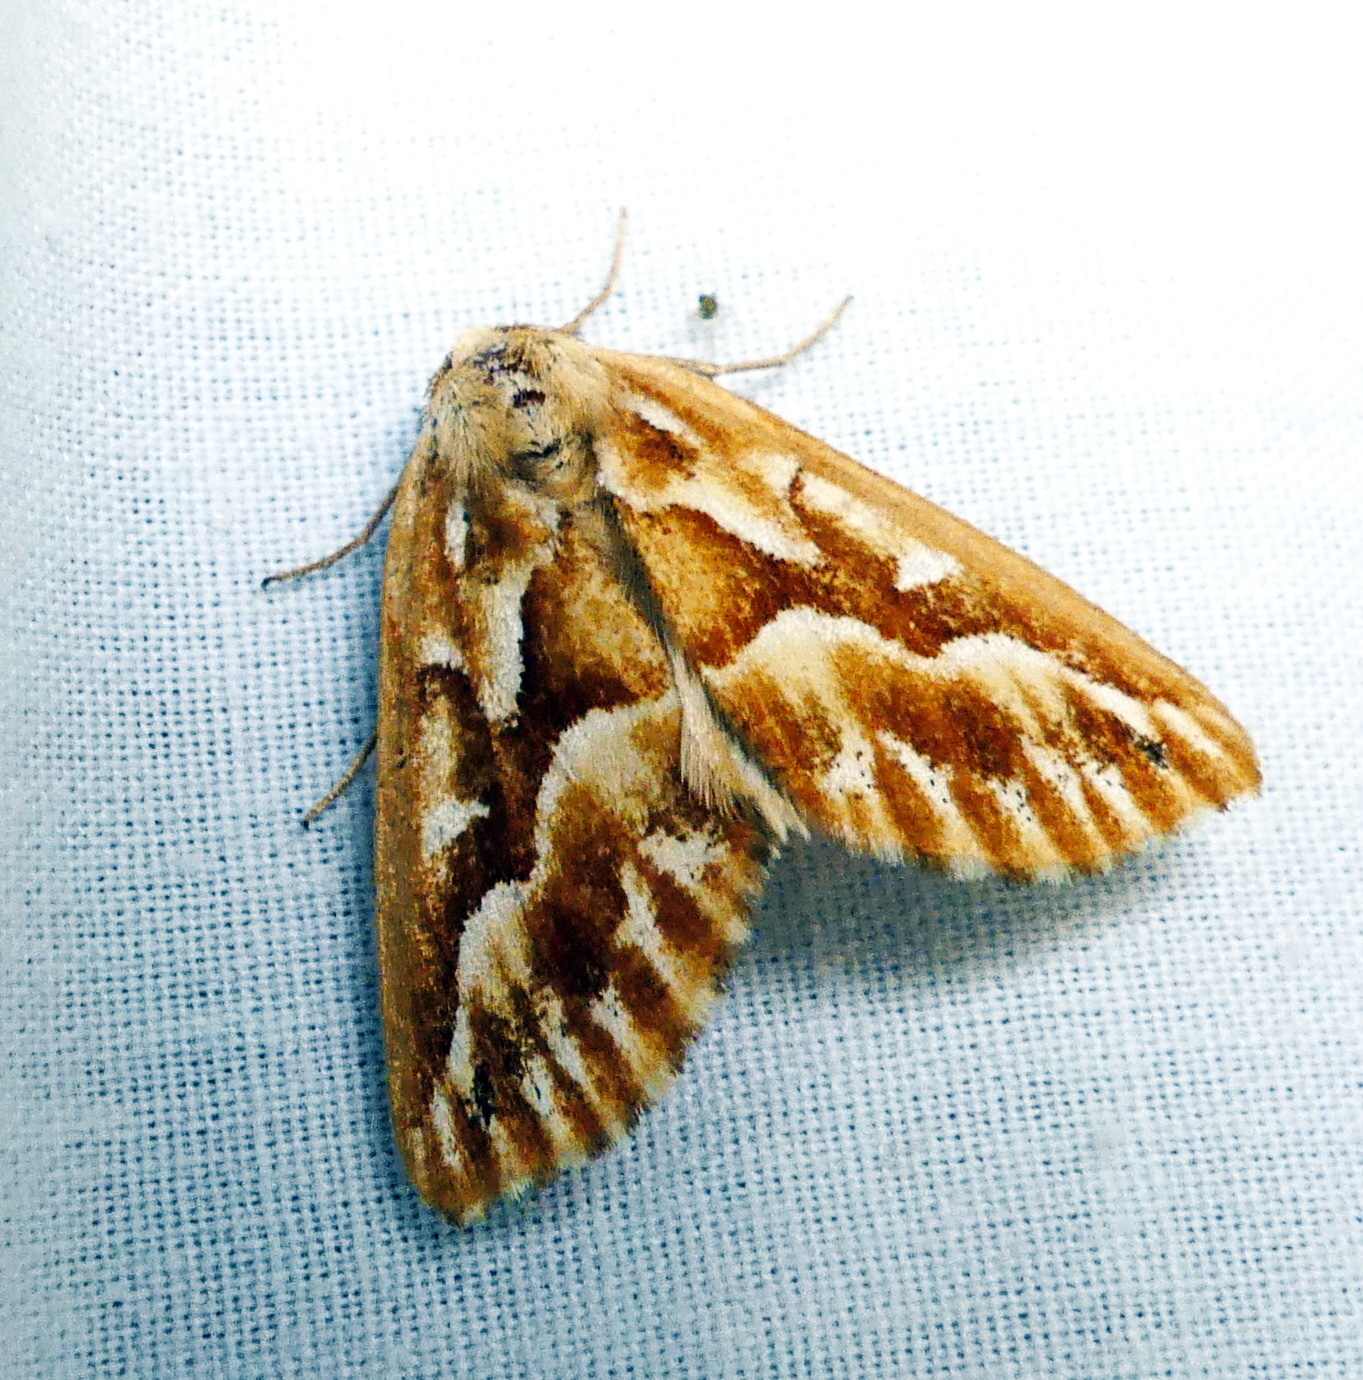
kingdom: Animalia
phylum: Arthropoda
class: Insecta
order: Lepidoptera
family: Geometridae
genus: Caripeta
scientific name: Caripeta piniata
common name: Northern pine looper moth
